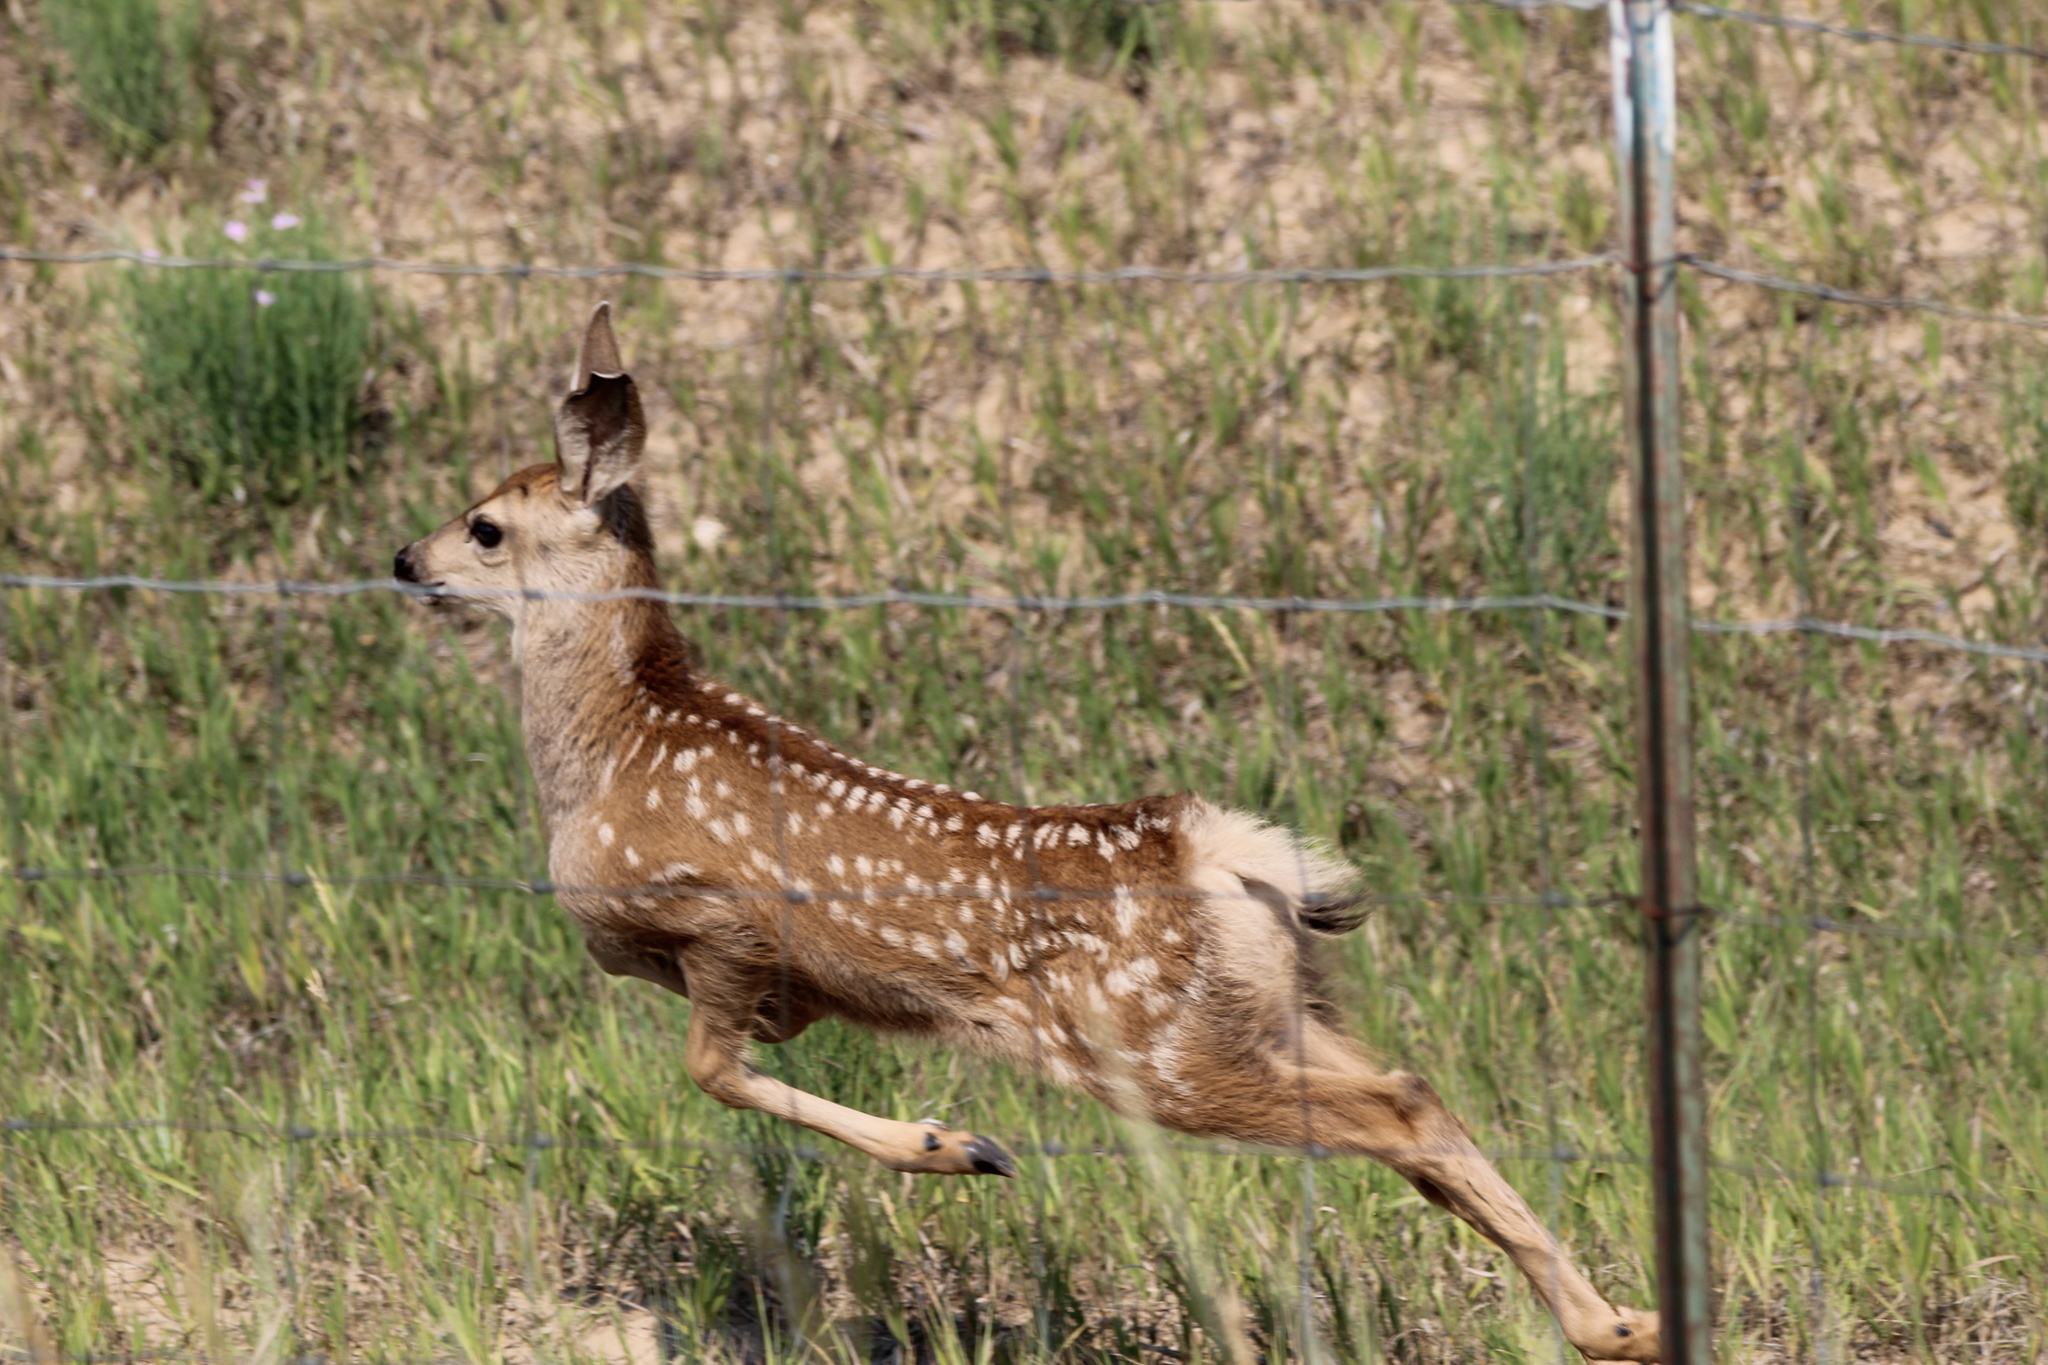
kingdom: Animalia
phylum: Chordata
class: Mammalia
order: Artiodactyla
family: Cervidae
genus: Odocoileus
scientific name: Odocoileus hemionus
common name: Mule deer
